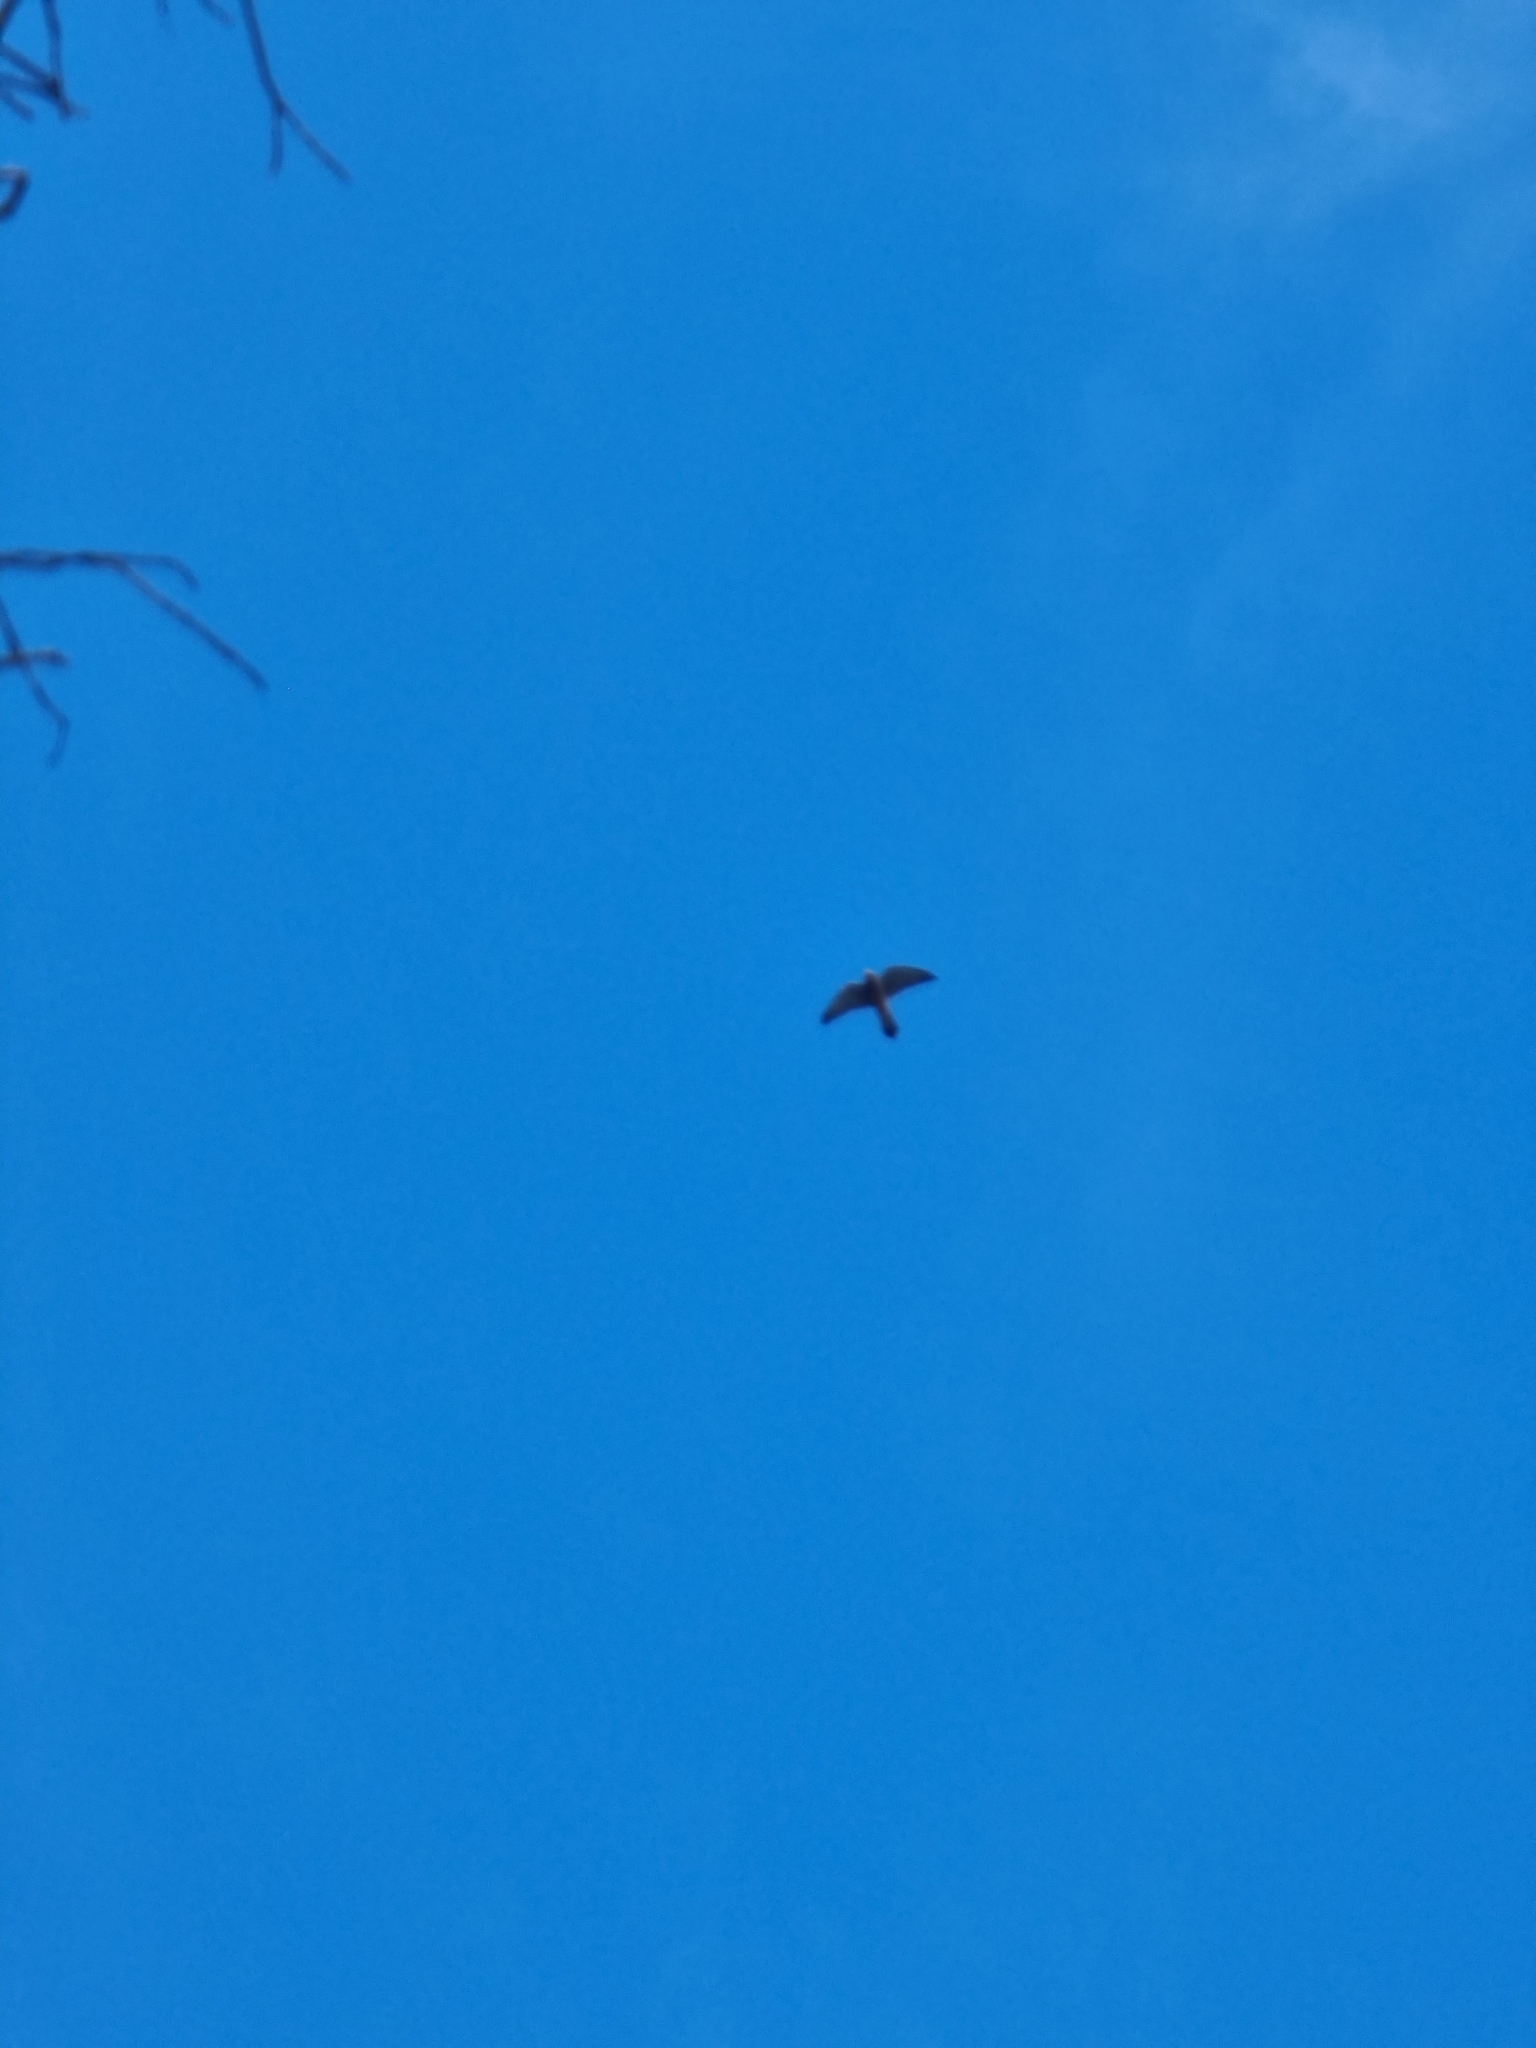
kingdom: Animalia
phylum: Chordata
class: Aves
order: Falconiformes
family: Falconidae
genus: Falco
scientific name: Falco tinnunculus
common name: Common kestrel
